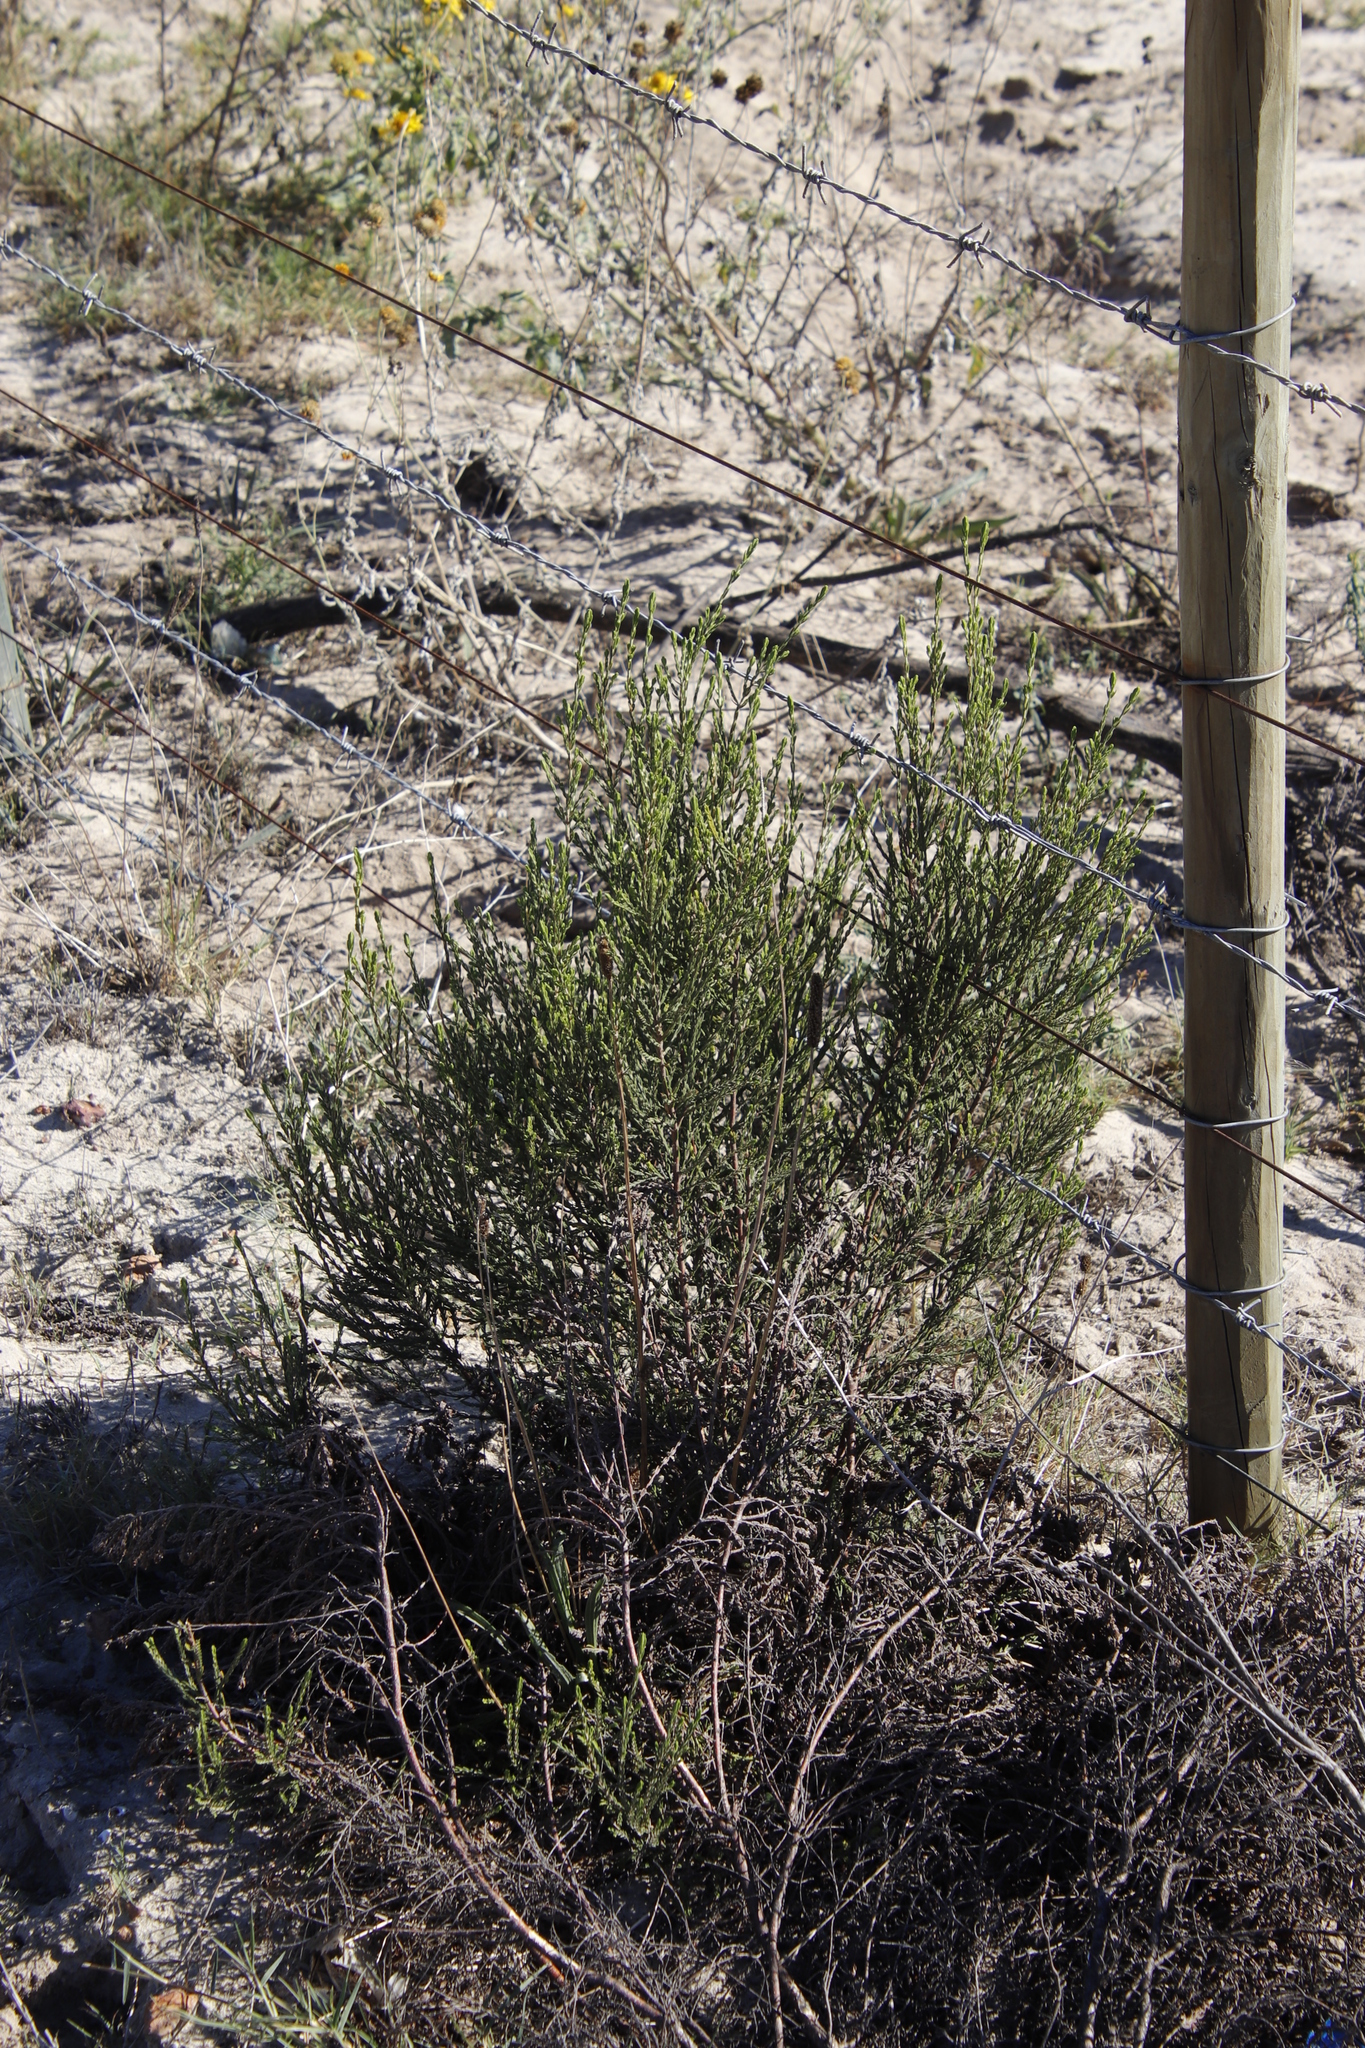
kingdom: Plantae
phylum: Tracheophyta
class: Magnoliopsida
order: Malvales
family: Thymelaeaceae
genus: Passerina
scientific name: Passerina corymbosa
